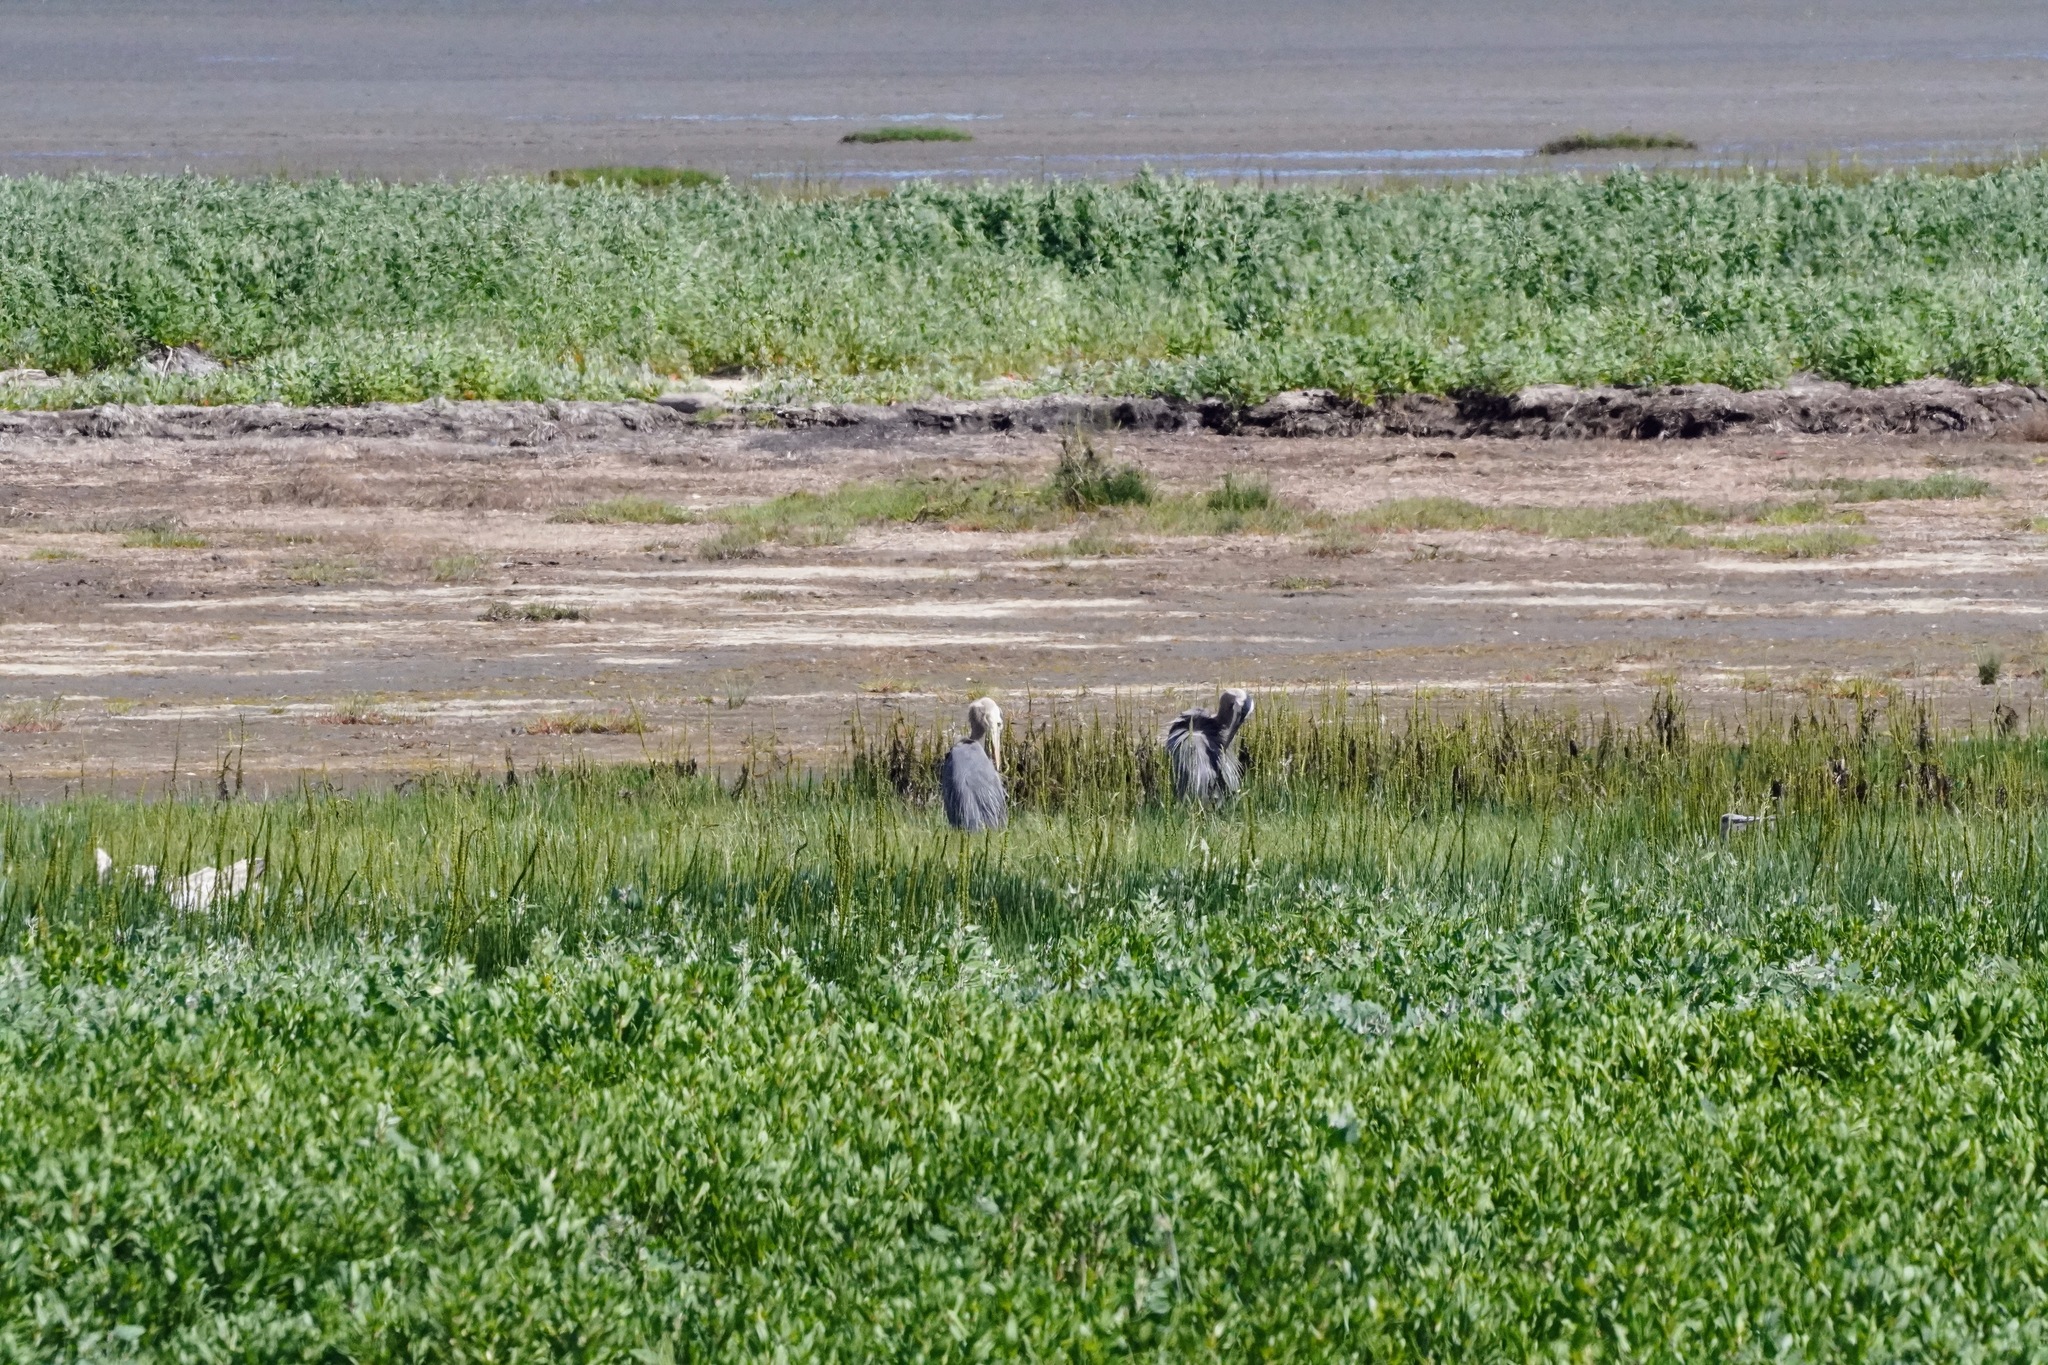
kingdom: Animalia
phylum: Chordata
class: Aves
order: Pelecaniformes
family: Ardeidae
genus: Ardea
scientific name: Ardea herodias
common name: Great blue heron
